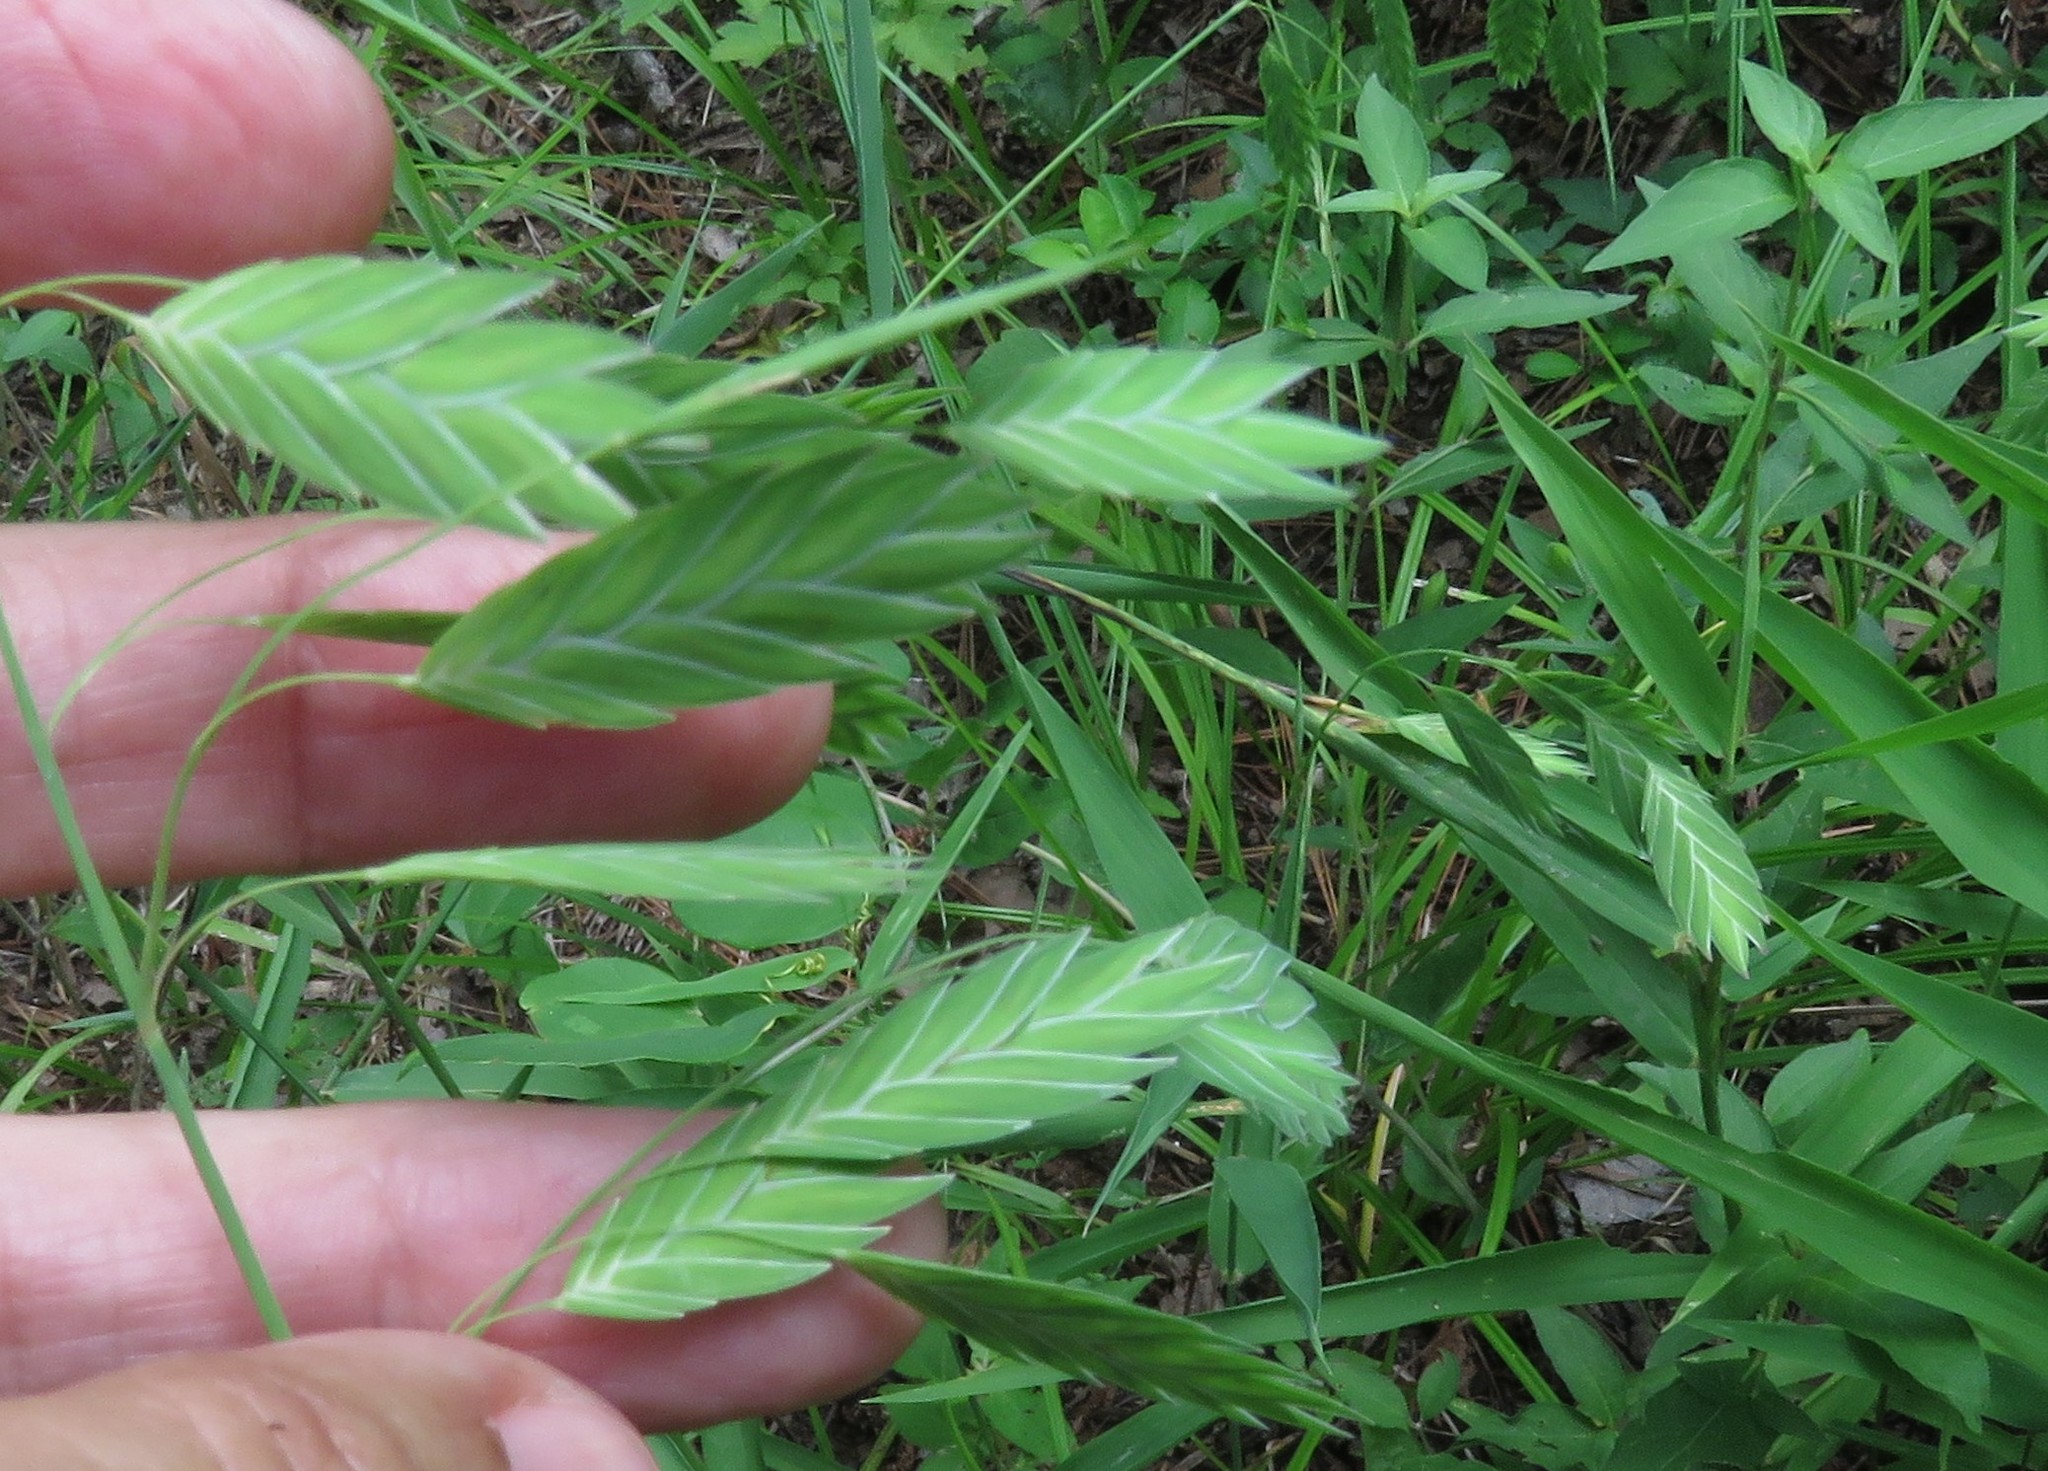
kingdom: Plantae
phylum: Tracheophyta
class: Liliopsida
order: Poales
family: Poaceae
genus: Chasmanthium
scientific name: Chasmanthium latifolium
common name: Broad-leaved chasmanthium
